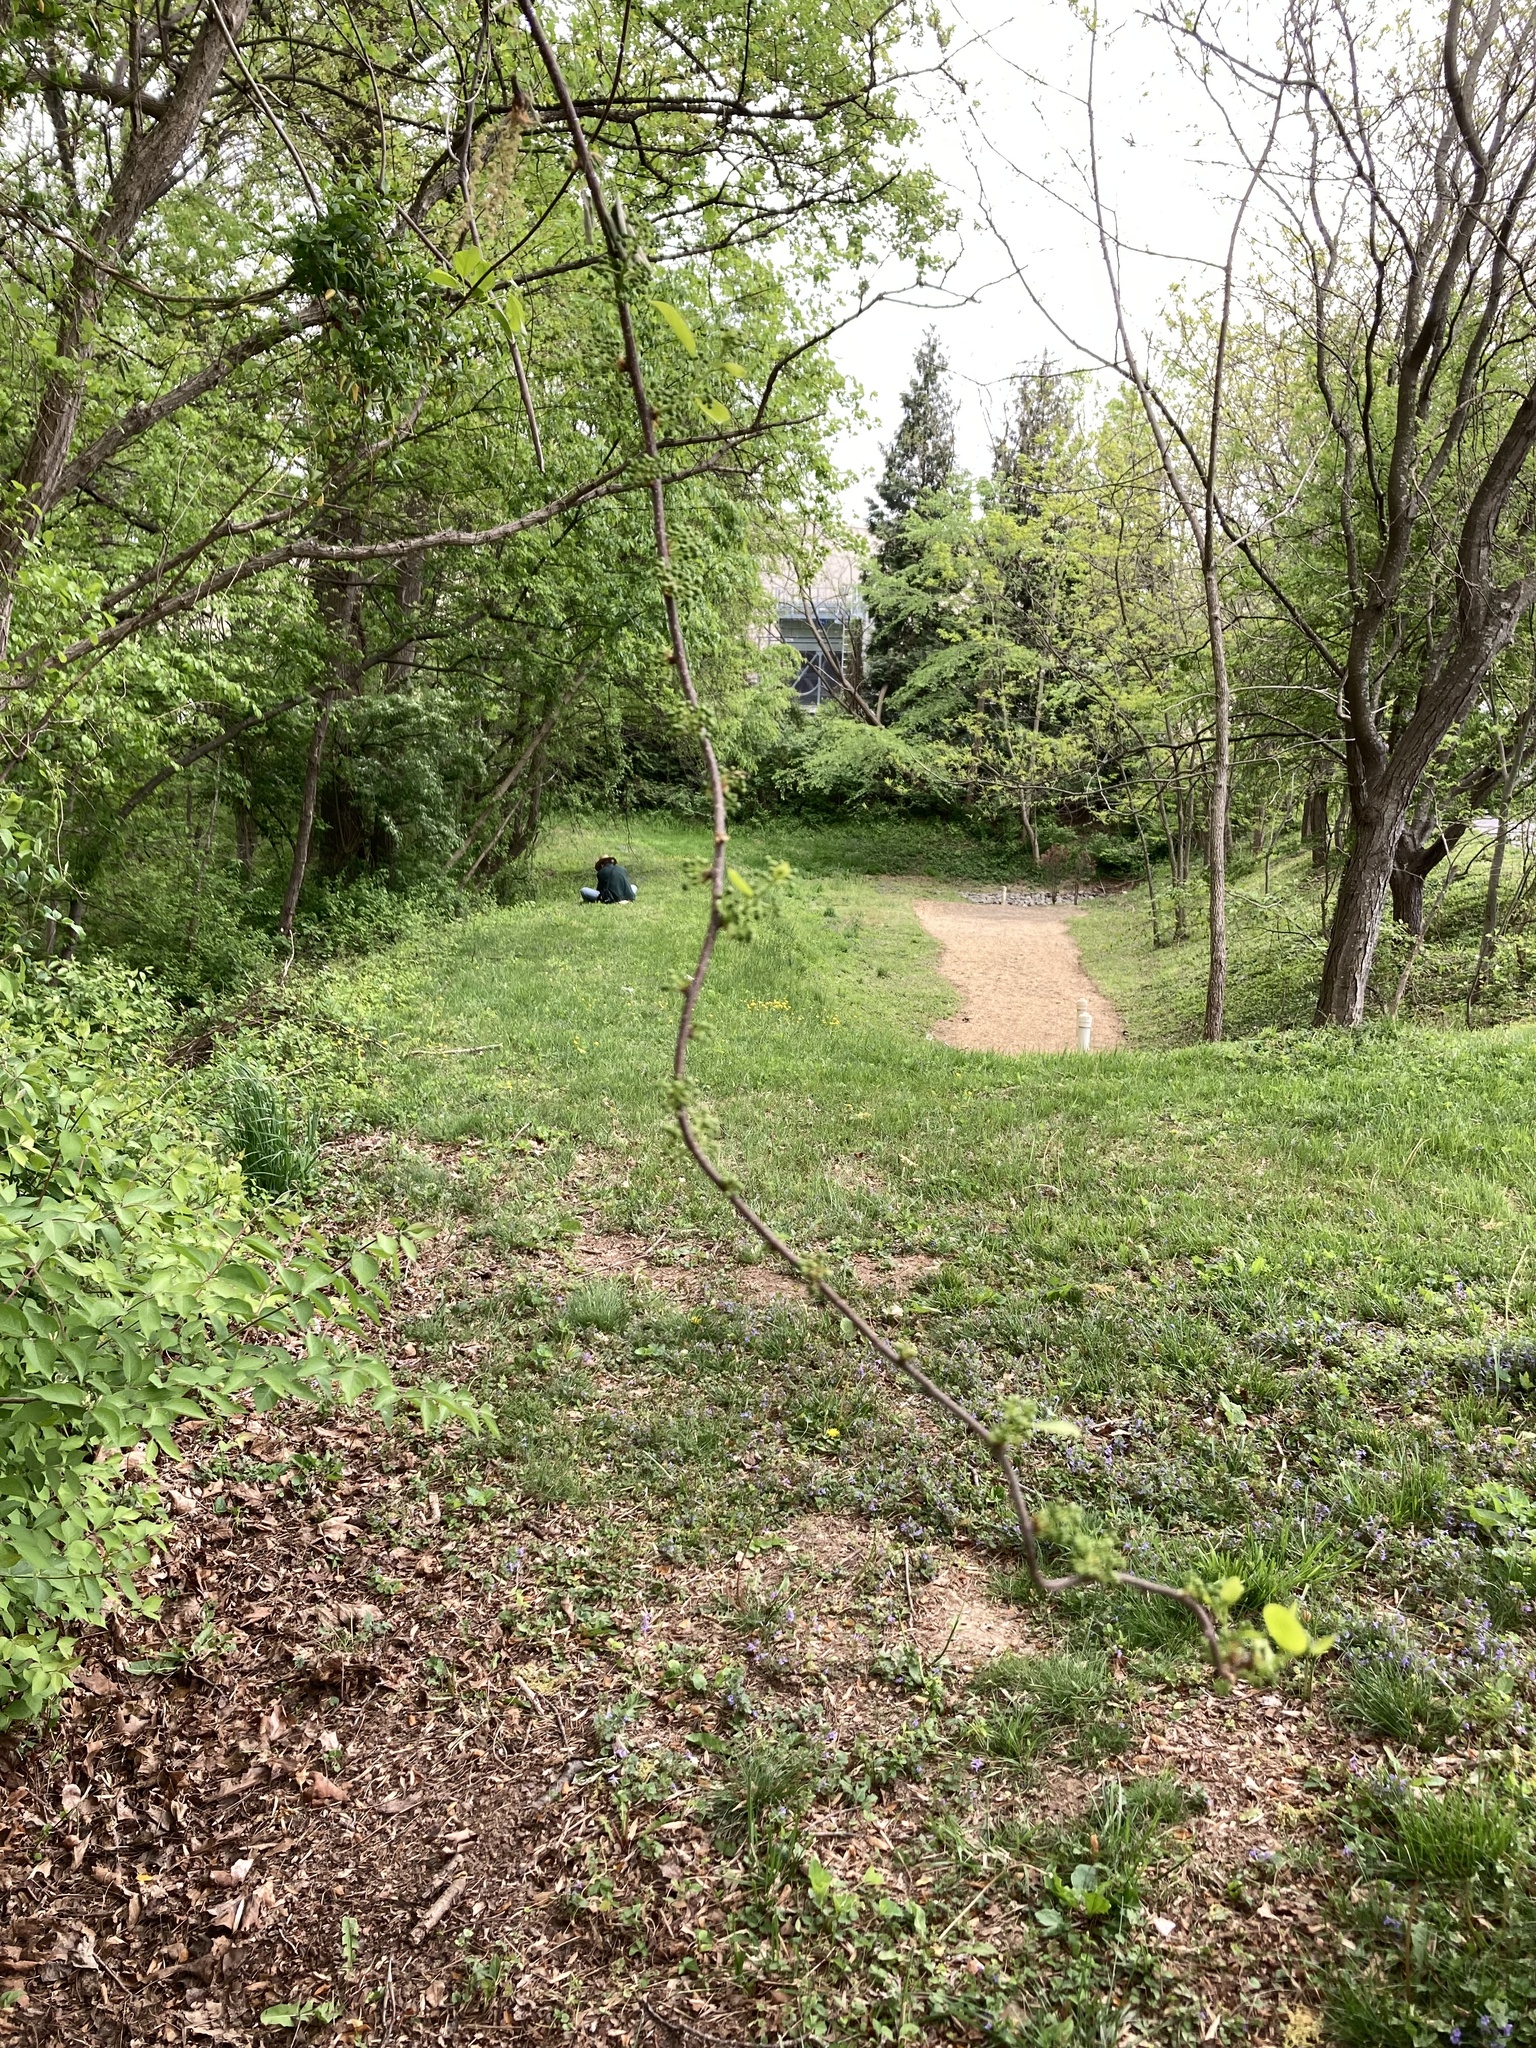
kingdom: Plantae
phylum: Tracheophyta
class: Magnoliopsida
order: Celastrales
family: Celastraceae
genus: Celastrus
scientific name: Celastrus orbiculatus
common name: Oriental bittersweet
